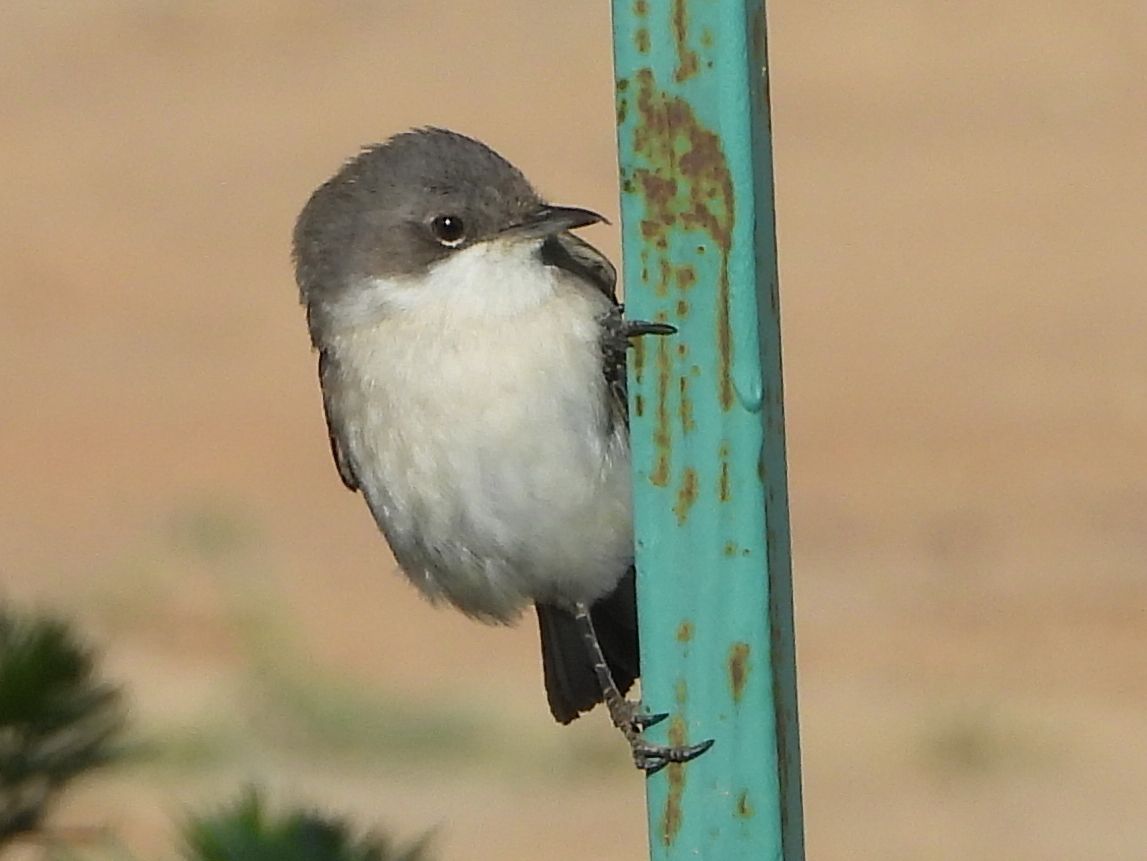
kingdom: Animalia
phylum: Chordata
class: Aves
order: Passeriformes
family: Sylviidae
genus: Sylvia
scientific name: Sylvia curruca
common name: Lesser whitethroat
